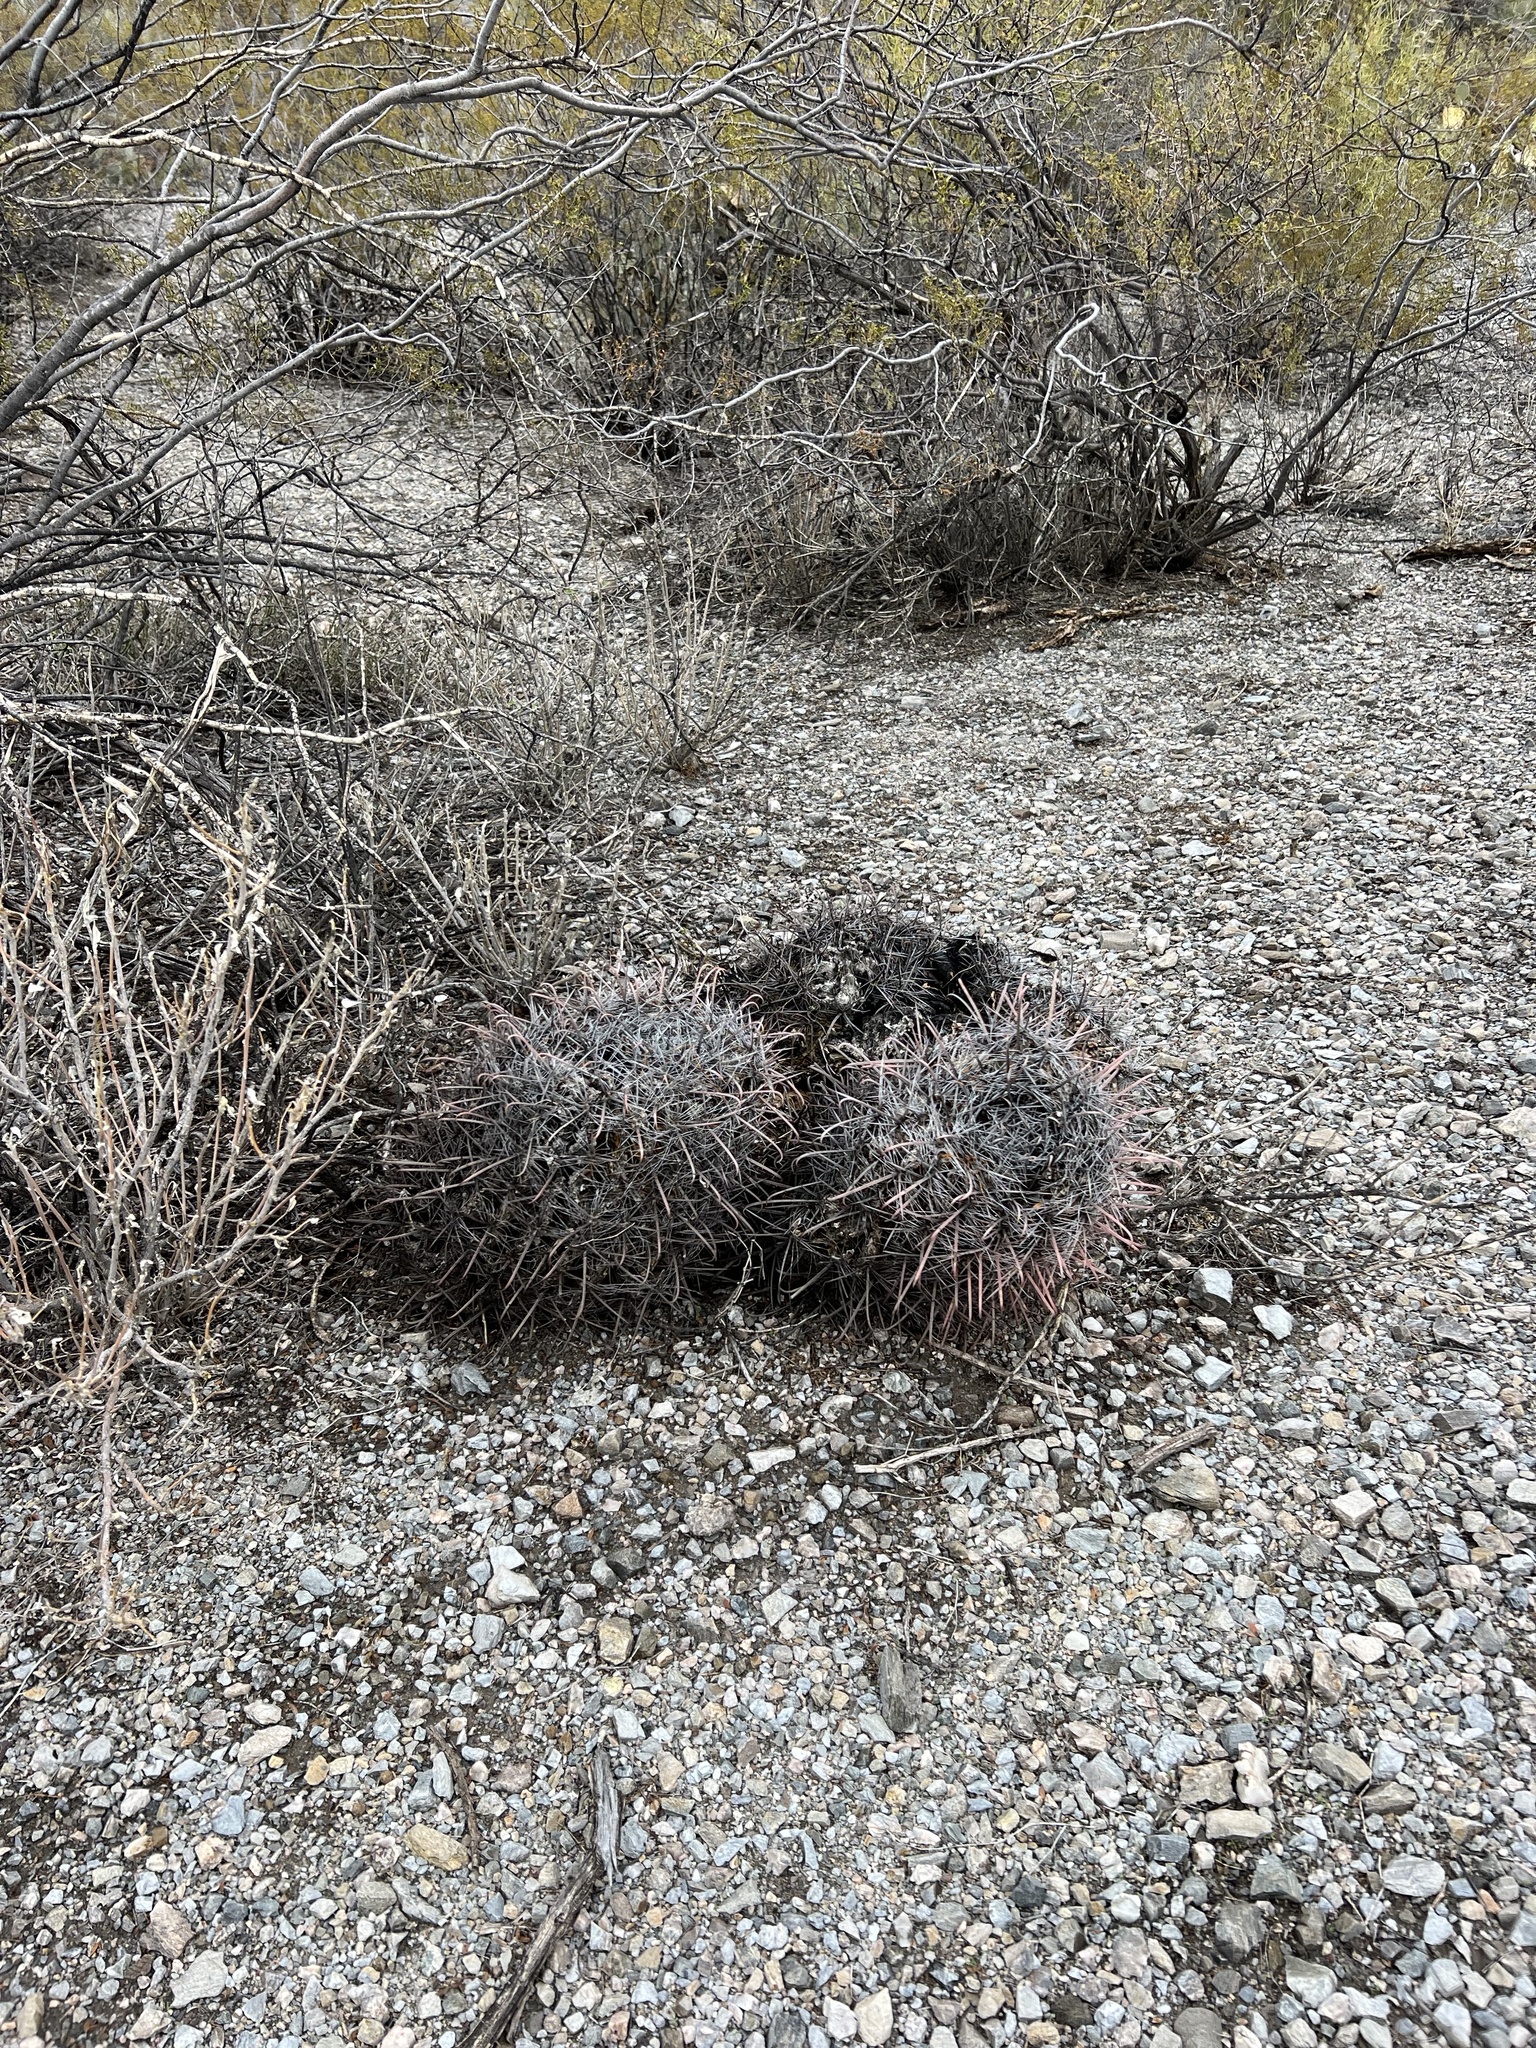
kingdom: Plantae
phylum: Tracheophyta
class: Magnoliopsida
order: Caryophyllales
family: Cactaceae
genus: Ferocactus
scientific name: Ferocactus wislizeni
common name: Candy barrel cactus
